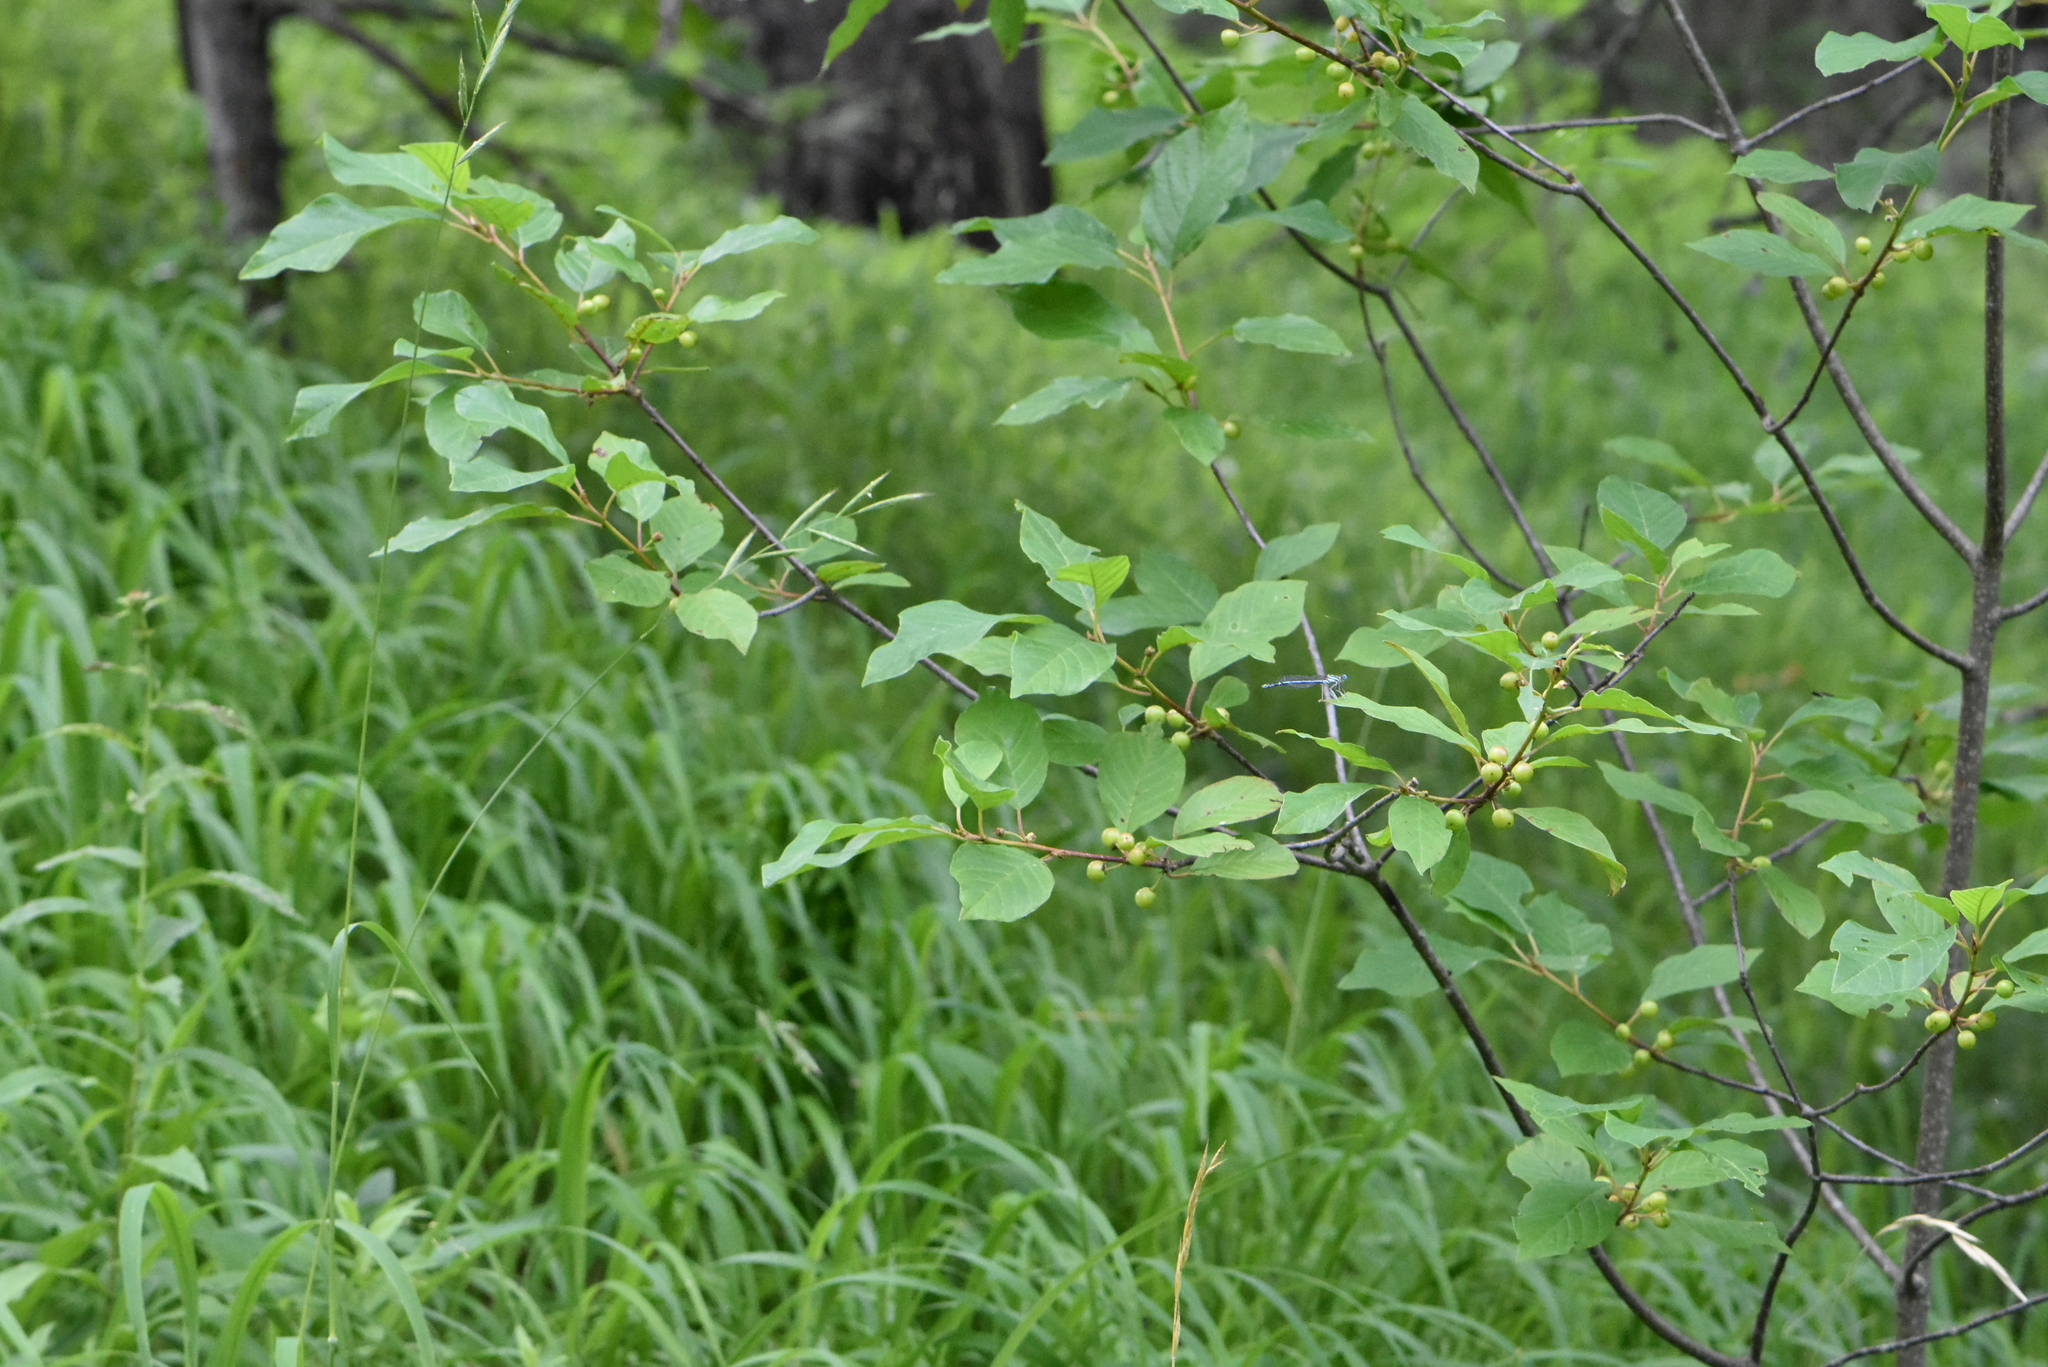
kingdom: Plantae
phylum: Tracheophyta
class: Magnoliopsida
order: Rosales
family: Rhamnaceae
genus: Frangula
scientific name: Frangula alnus
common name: Alder buckthorn
